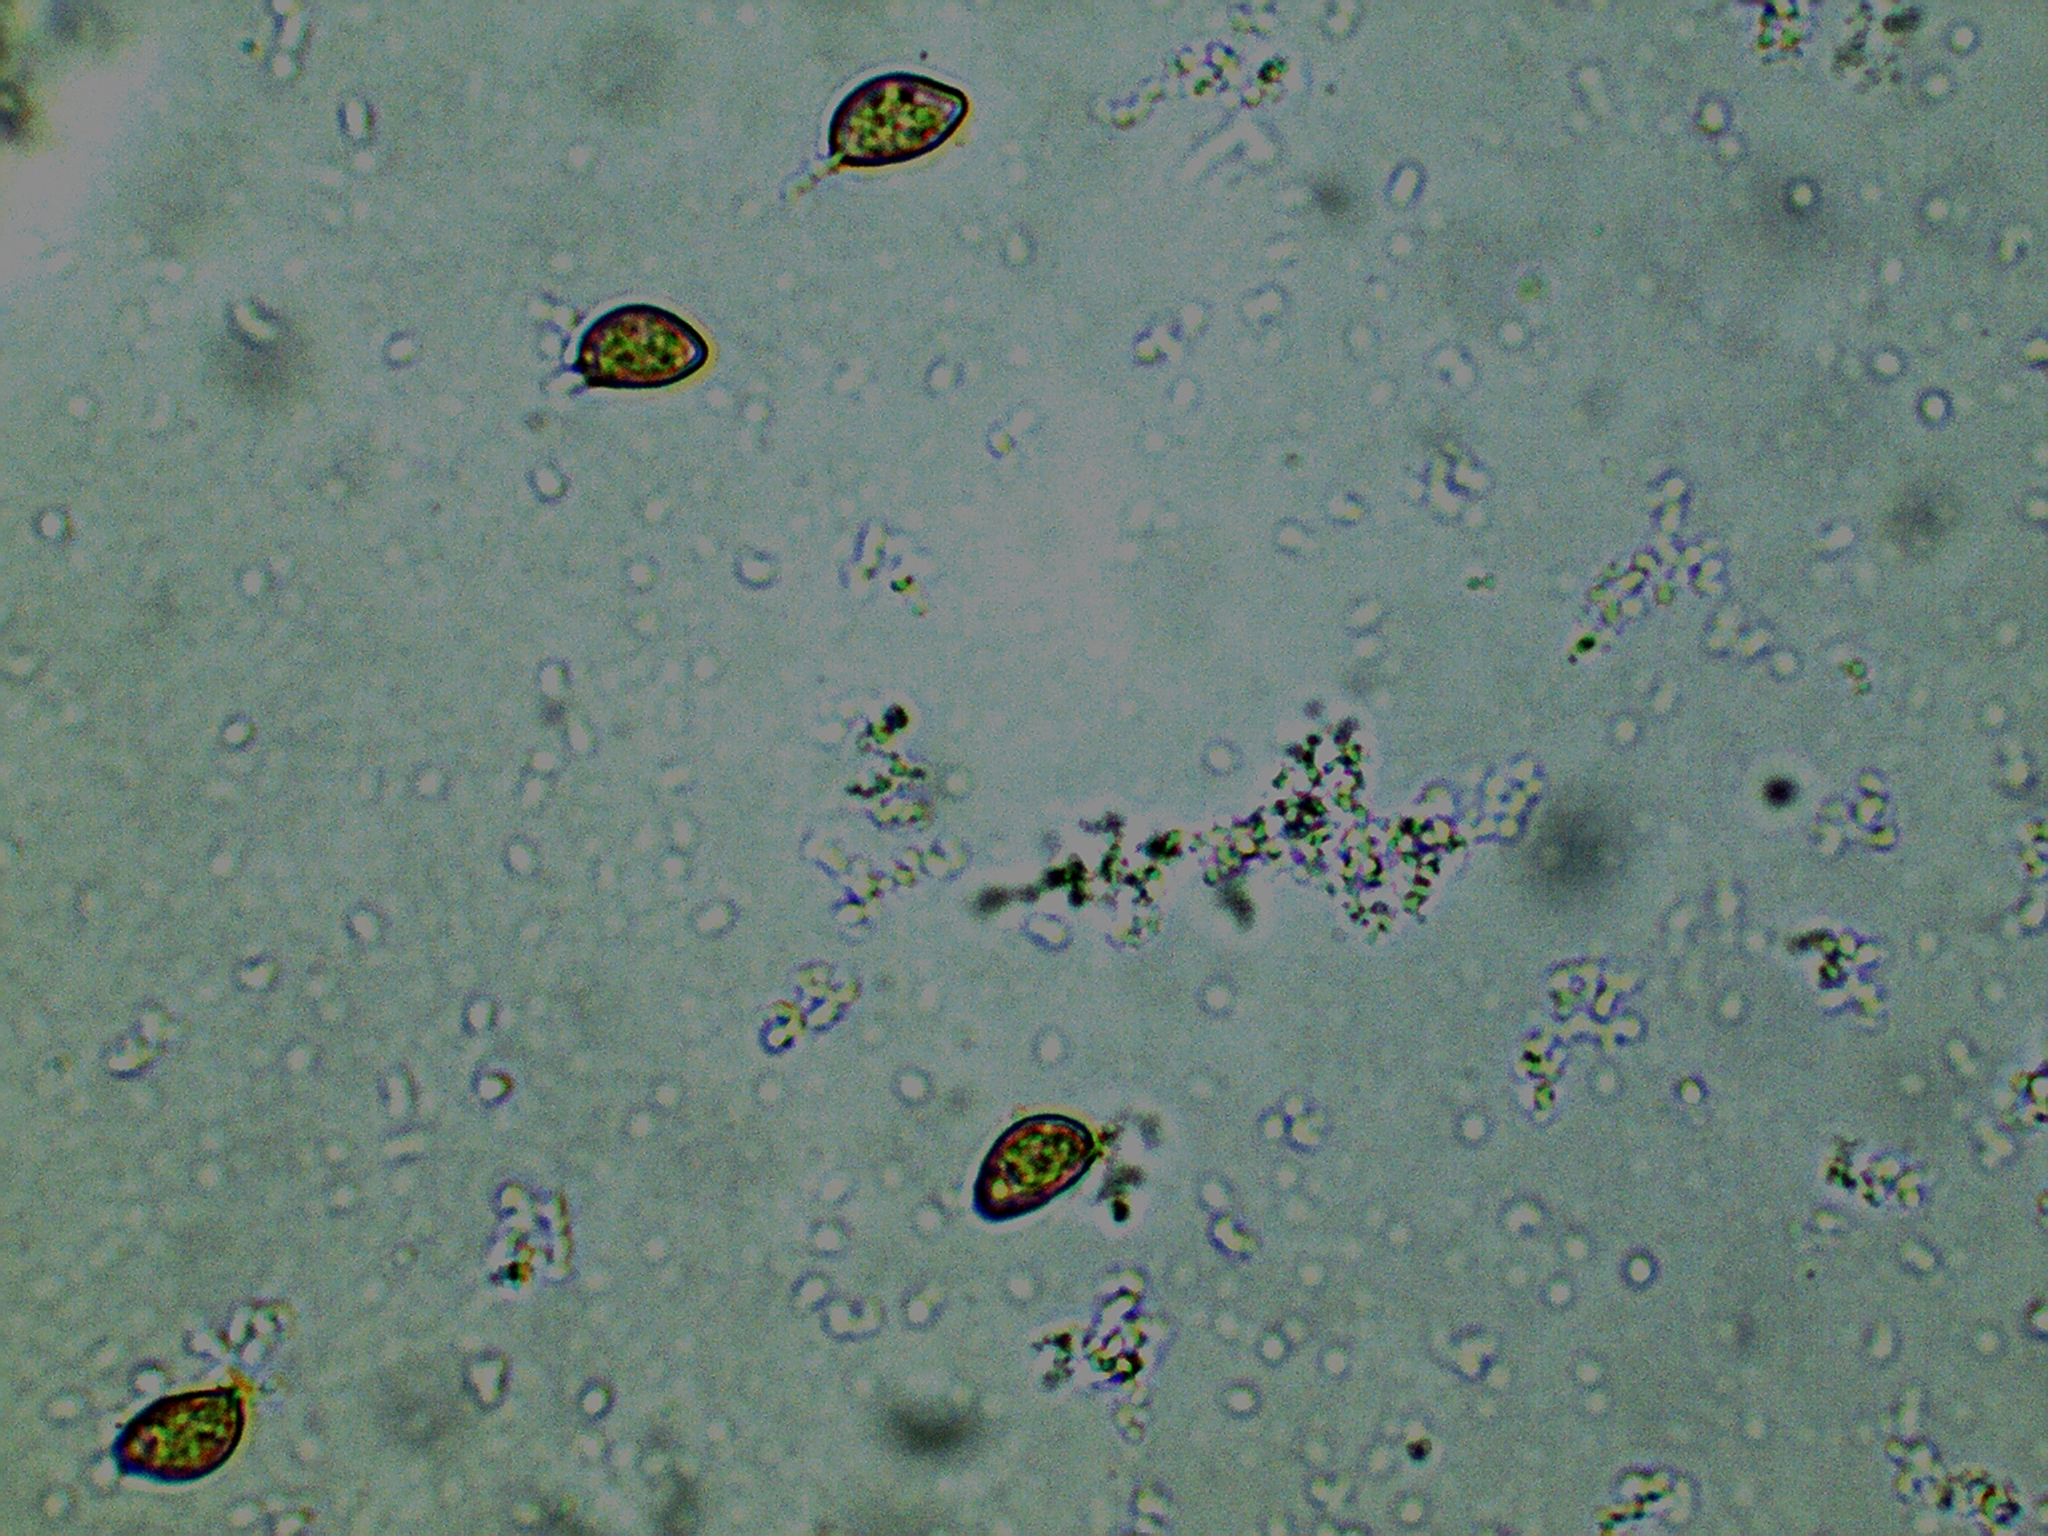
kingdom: Fungi
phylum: Basidiomycota
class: Agaricomycetes
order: Agaricales
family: Inocybaceae
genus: Inocybe
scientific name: Inocybe erinaceomorpha
